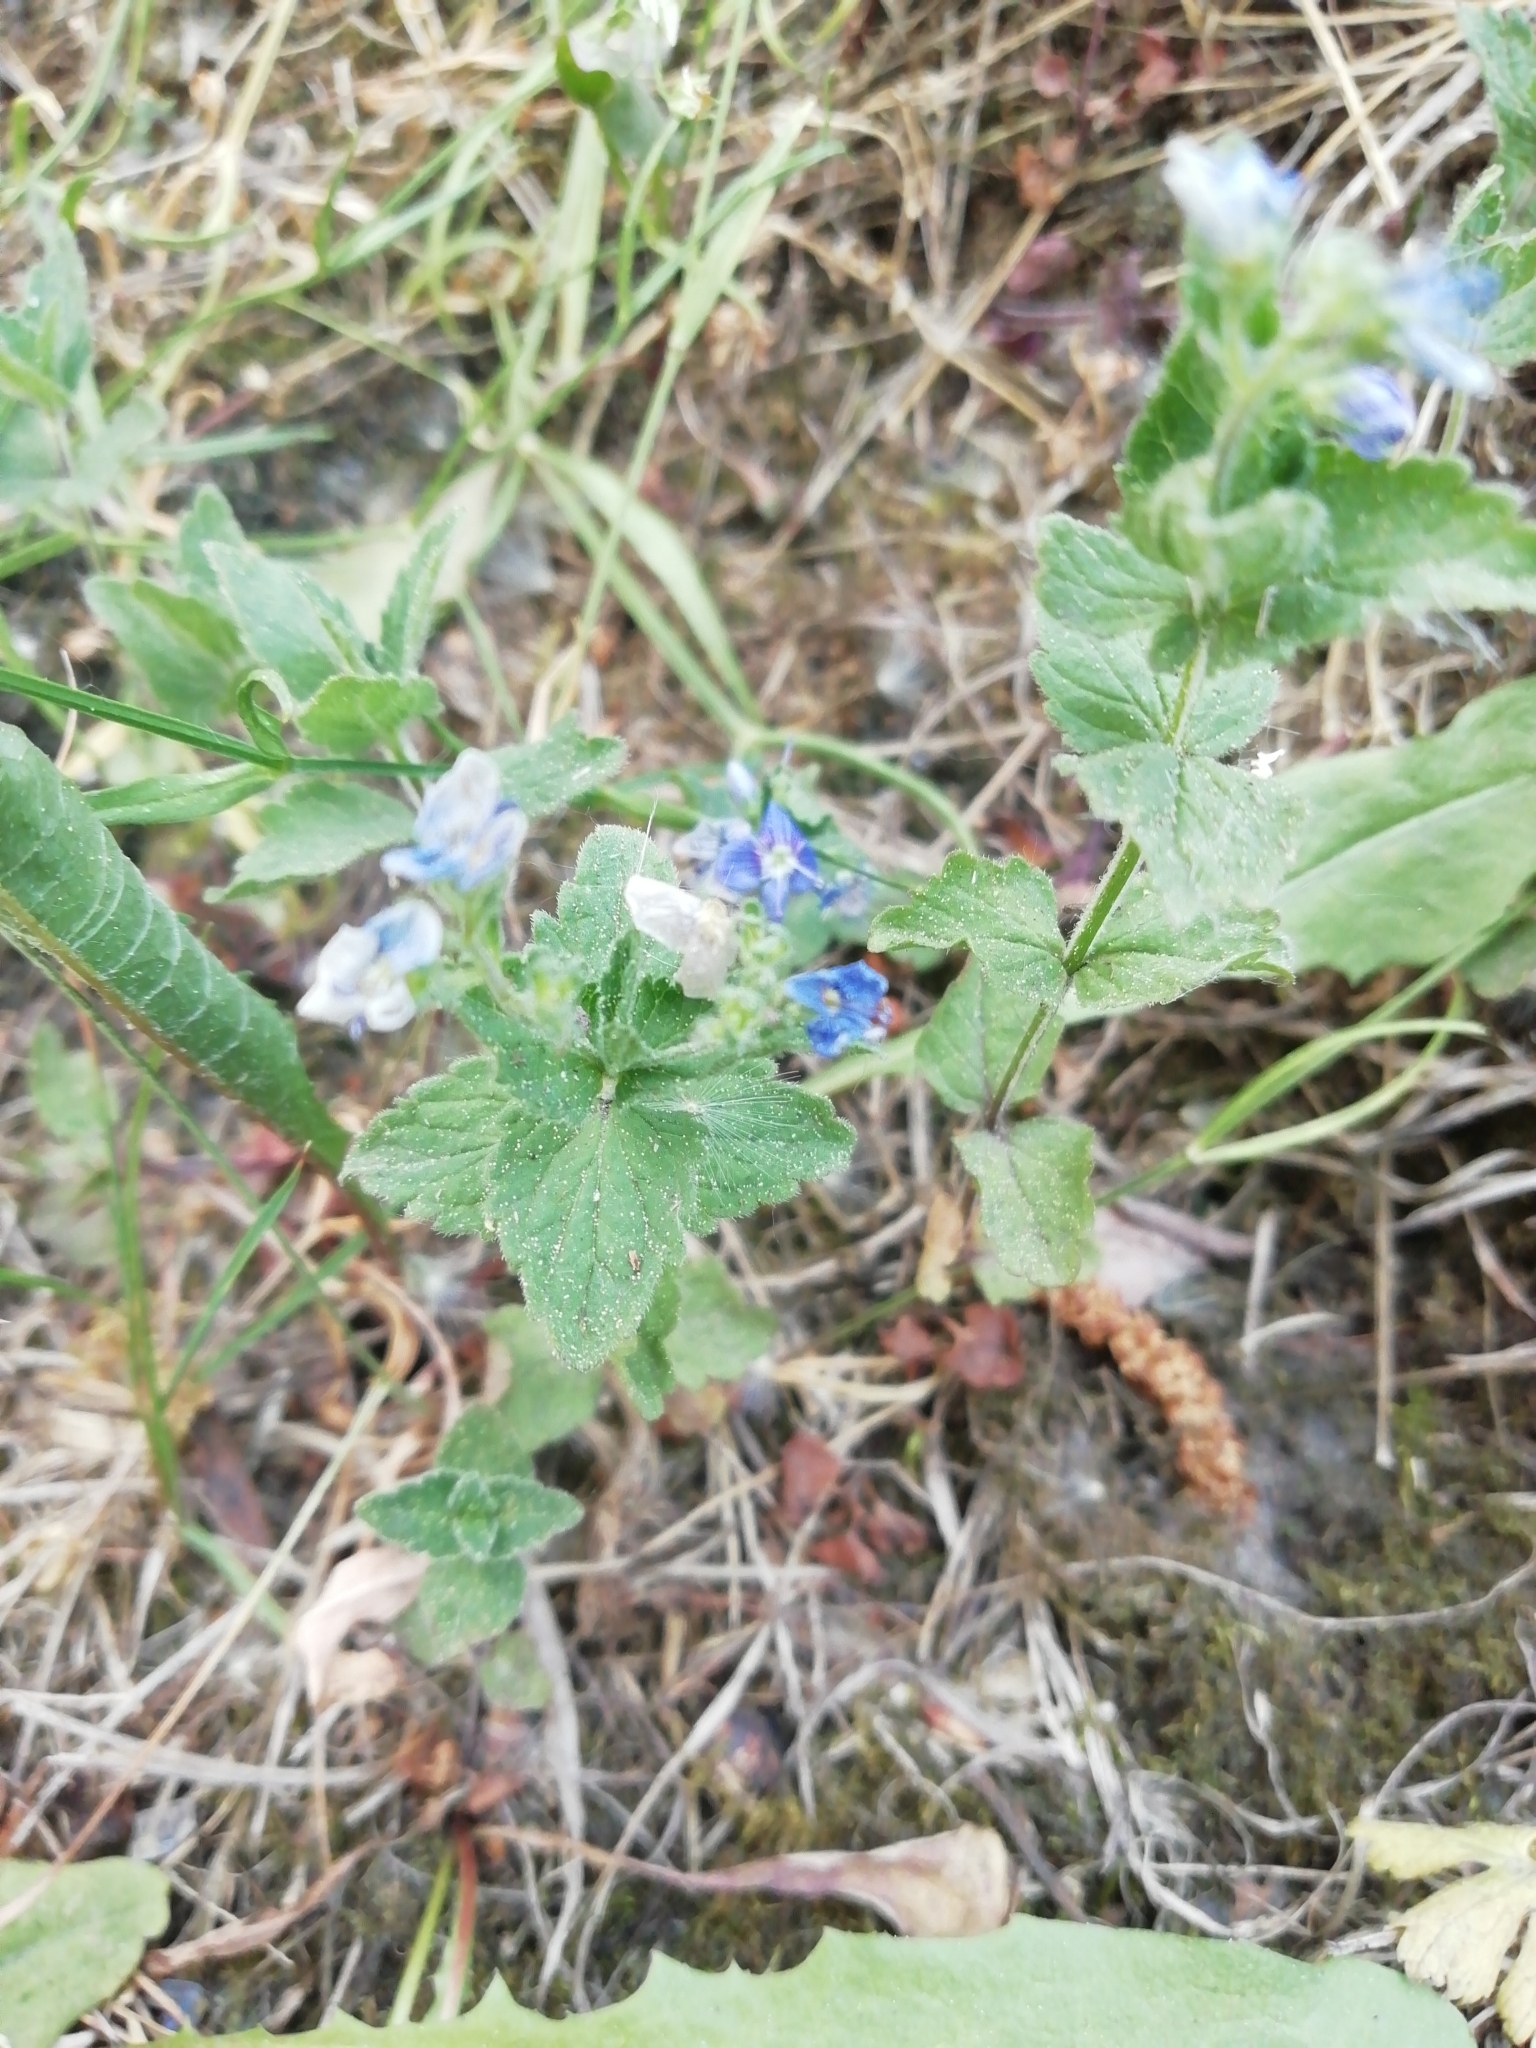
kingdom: Plantae
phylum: Tracheophyta
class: Magnoliopsida
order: Lamiales
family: Plantaginaceae
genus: Veronica
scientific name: Veronica chamaedrys
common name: Germander speedwell
